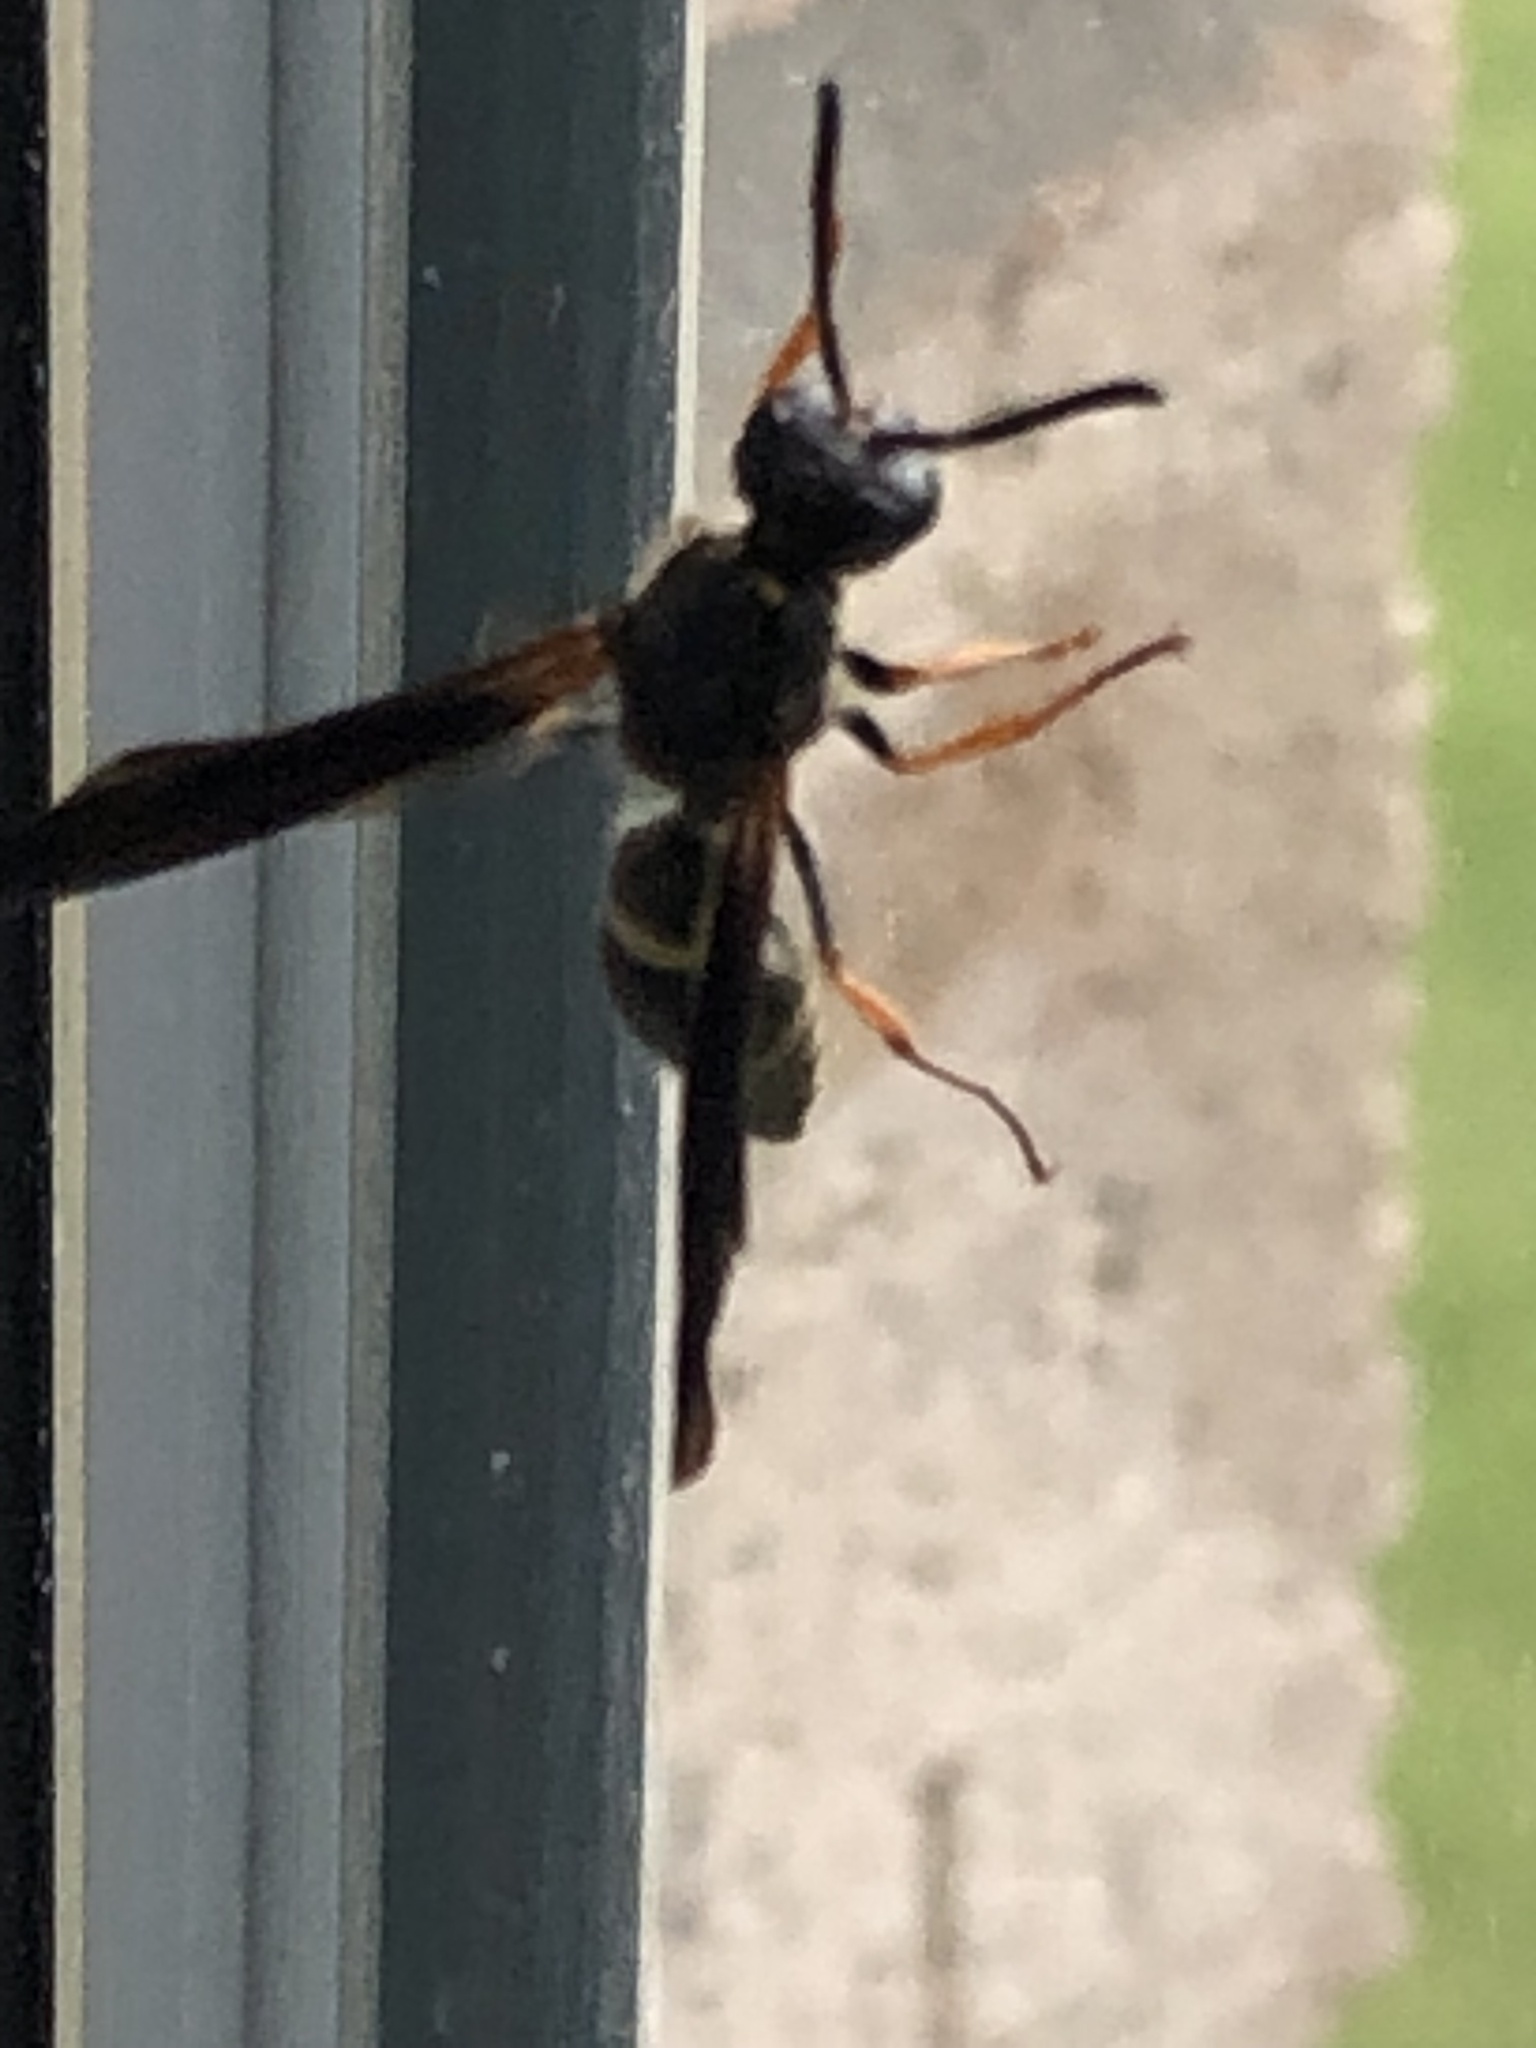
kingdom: Animalia
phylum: Arthropoda
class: Insecta
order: Hymenoptera
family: Vespidae
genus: Ancistrocerus
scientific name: Ancistrocerus unifasciatus
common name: One-banded mason wasp
